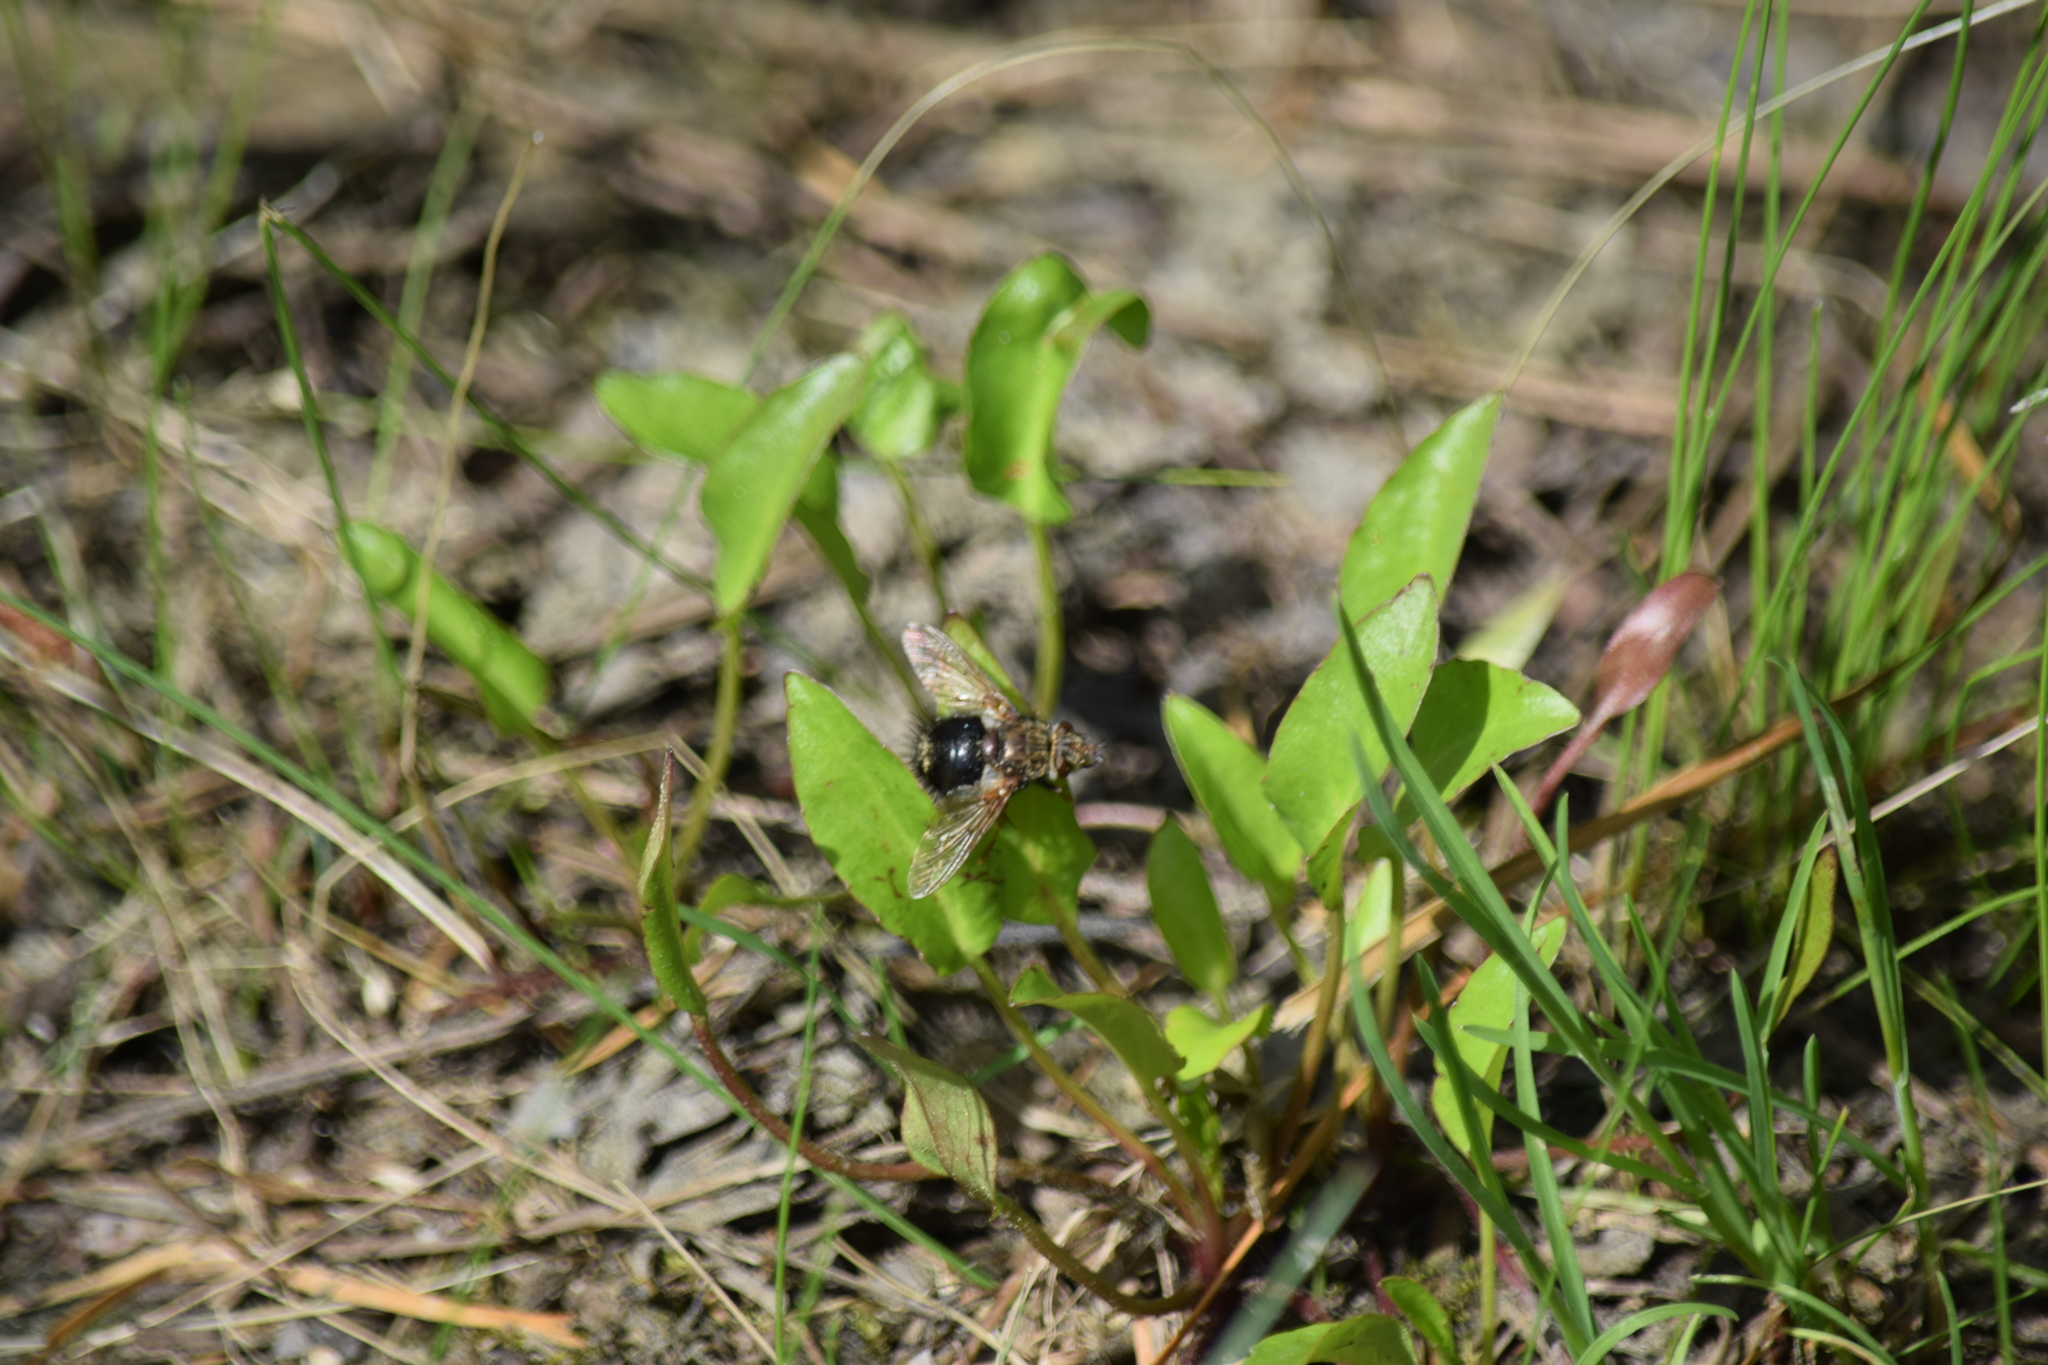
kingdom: Animalia
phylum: Arthropoda
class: Insecta
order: Diptera
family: Tachinidae
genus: Epalpus
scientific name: Epalpus signifer
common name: Early tachinid fly
